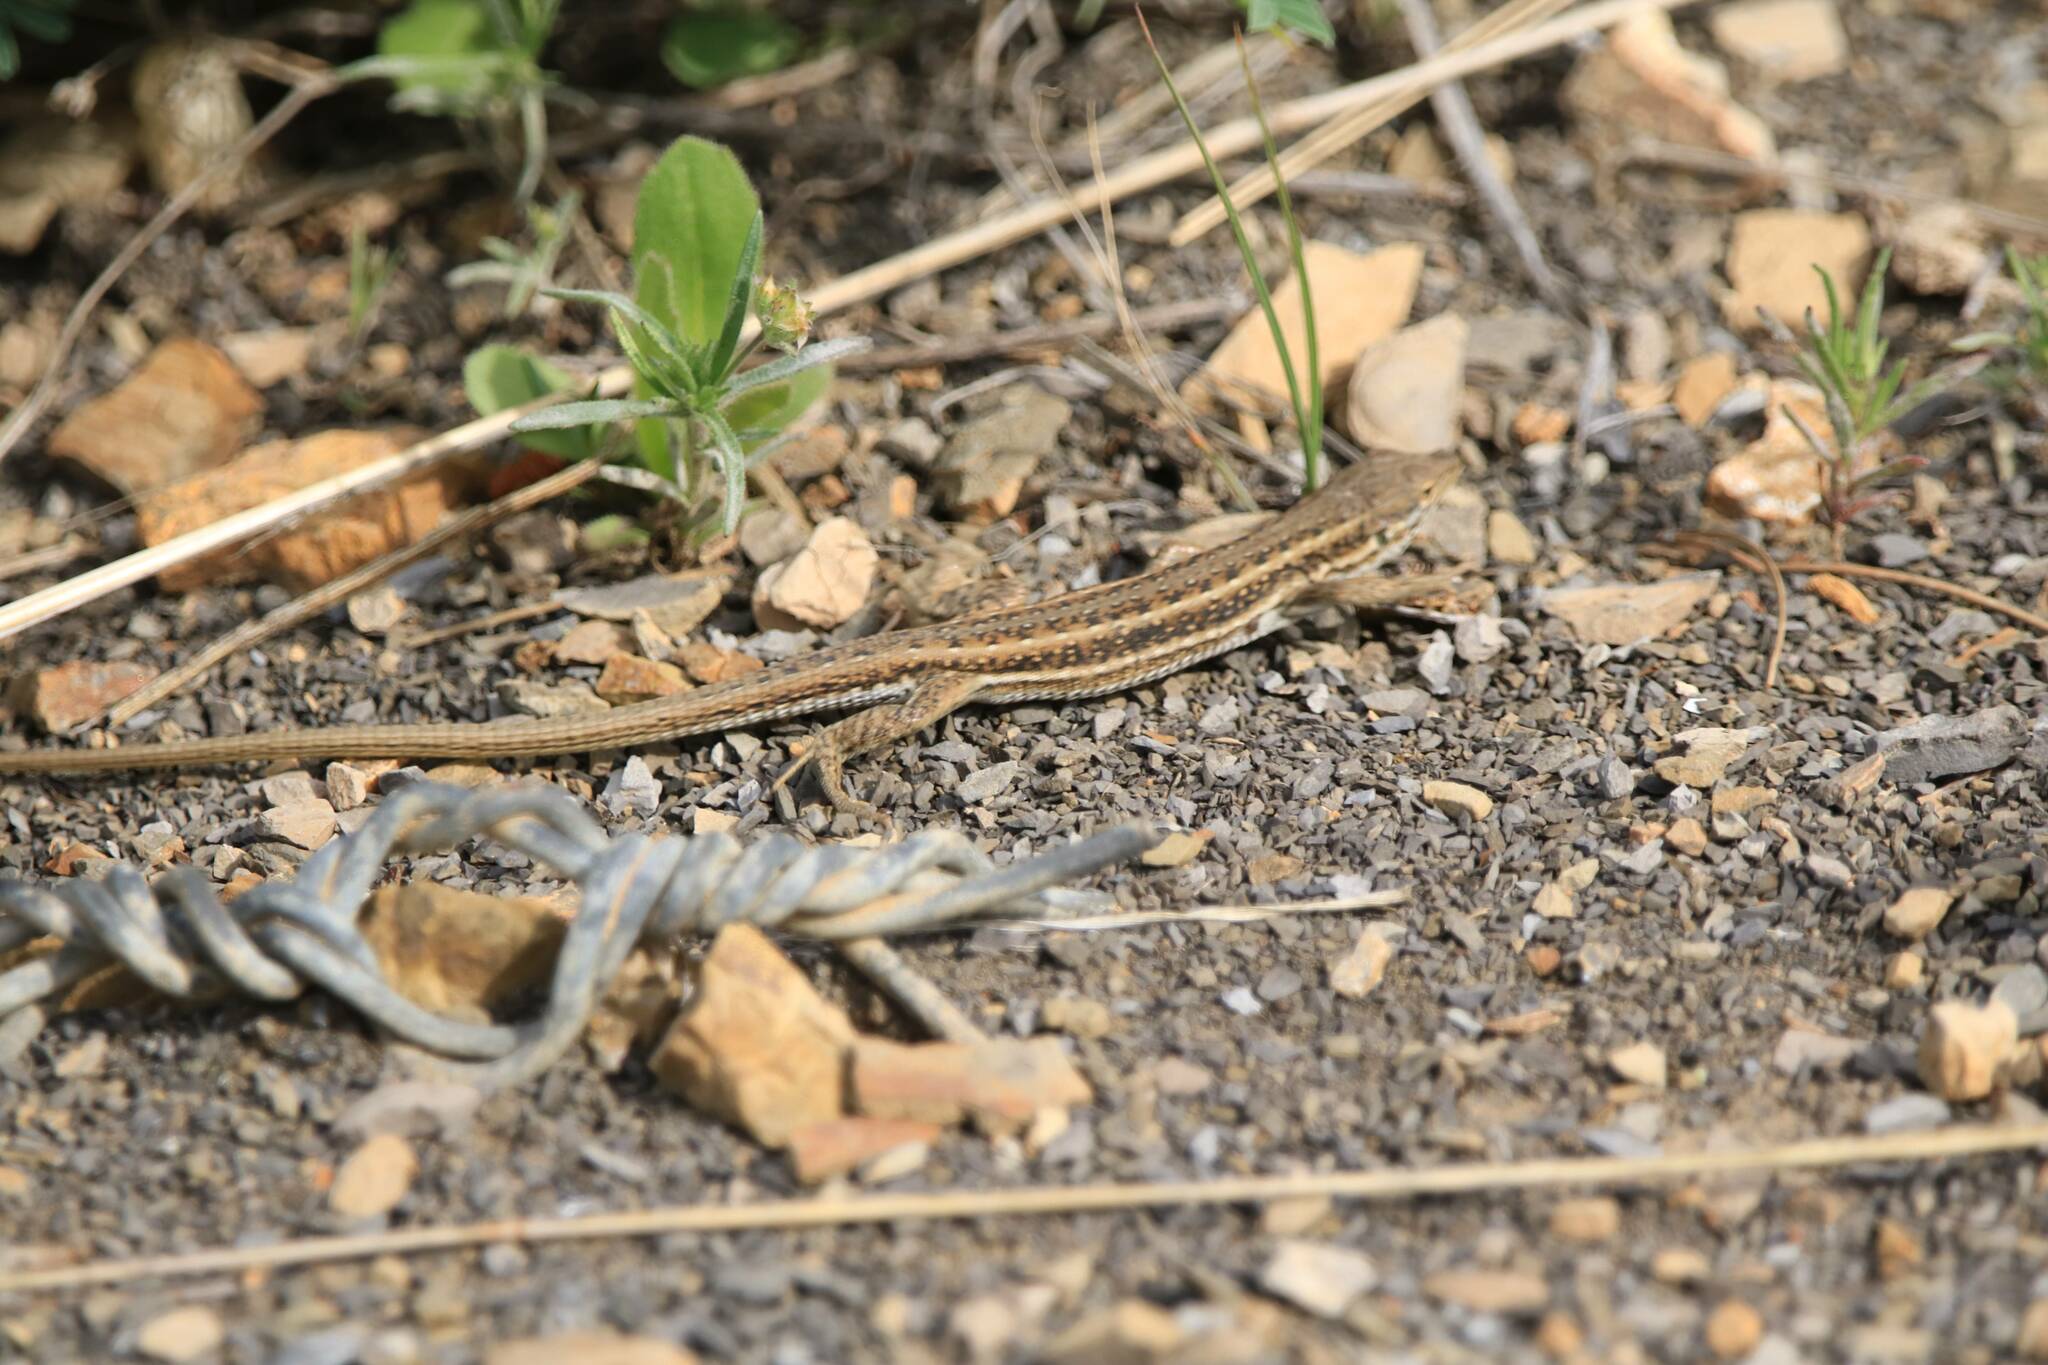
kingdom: Animalia
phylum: Chordata
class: Squamata
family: Lacertidae
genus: Mesalina
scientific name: Mesalina olivieri
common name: Oliver's desert racer
